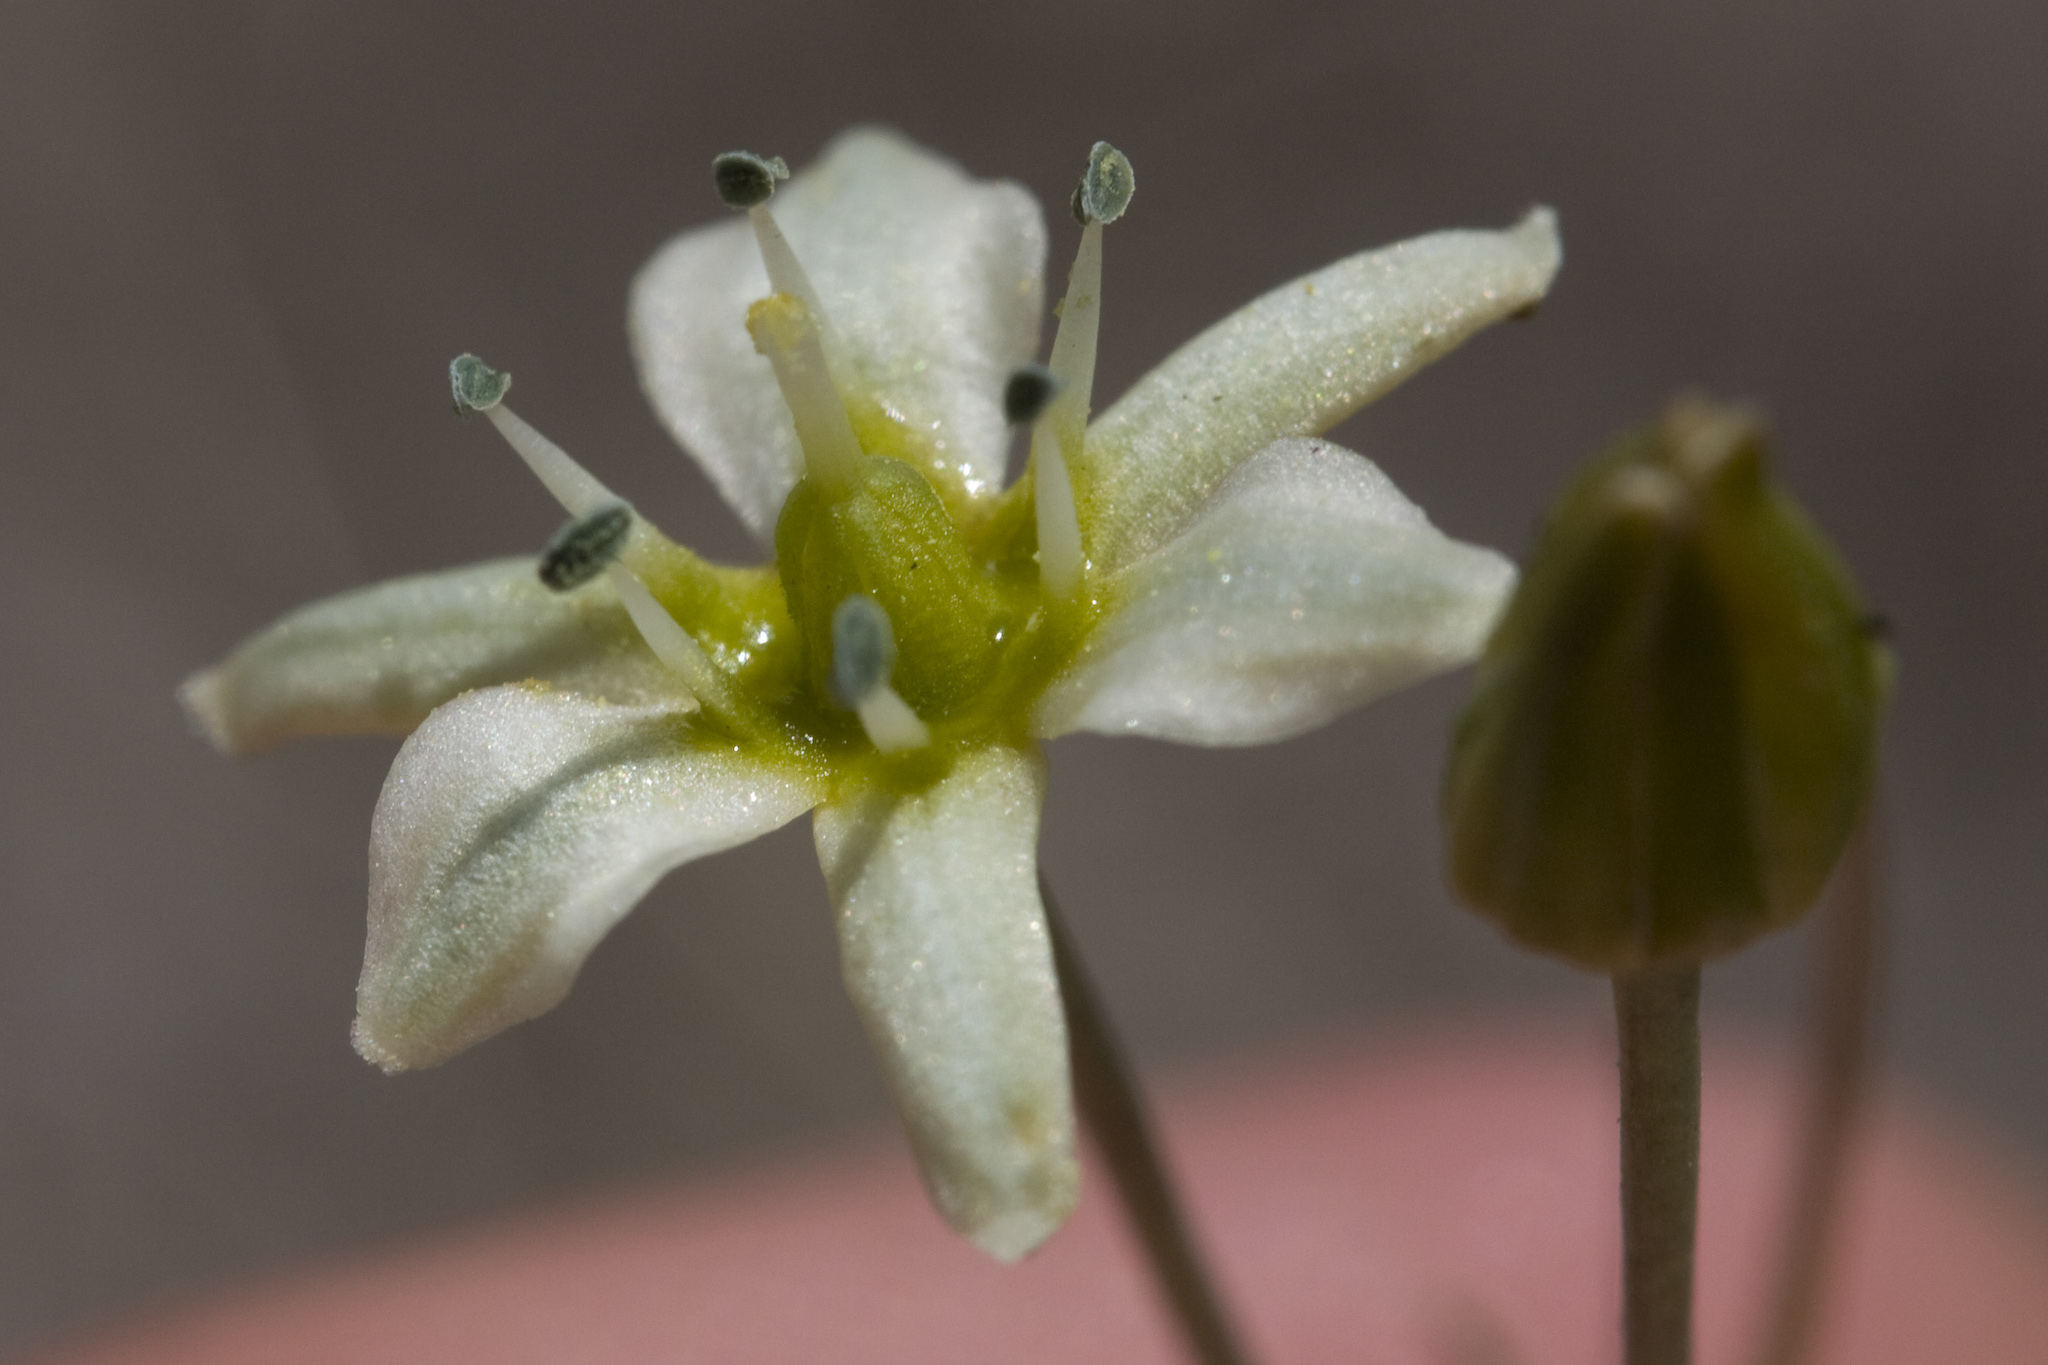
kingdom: Plantae
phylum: Tracheophyta
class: Liliopsida
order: Asparagales
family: Asparagaceae
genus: Muilla
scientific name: Muilla maritima
